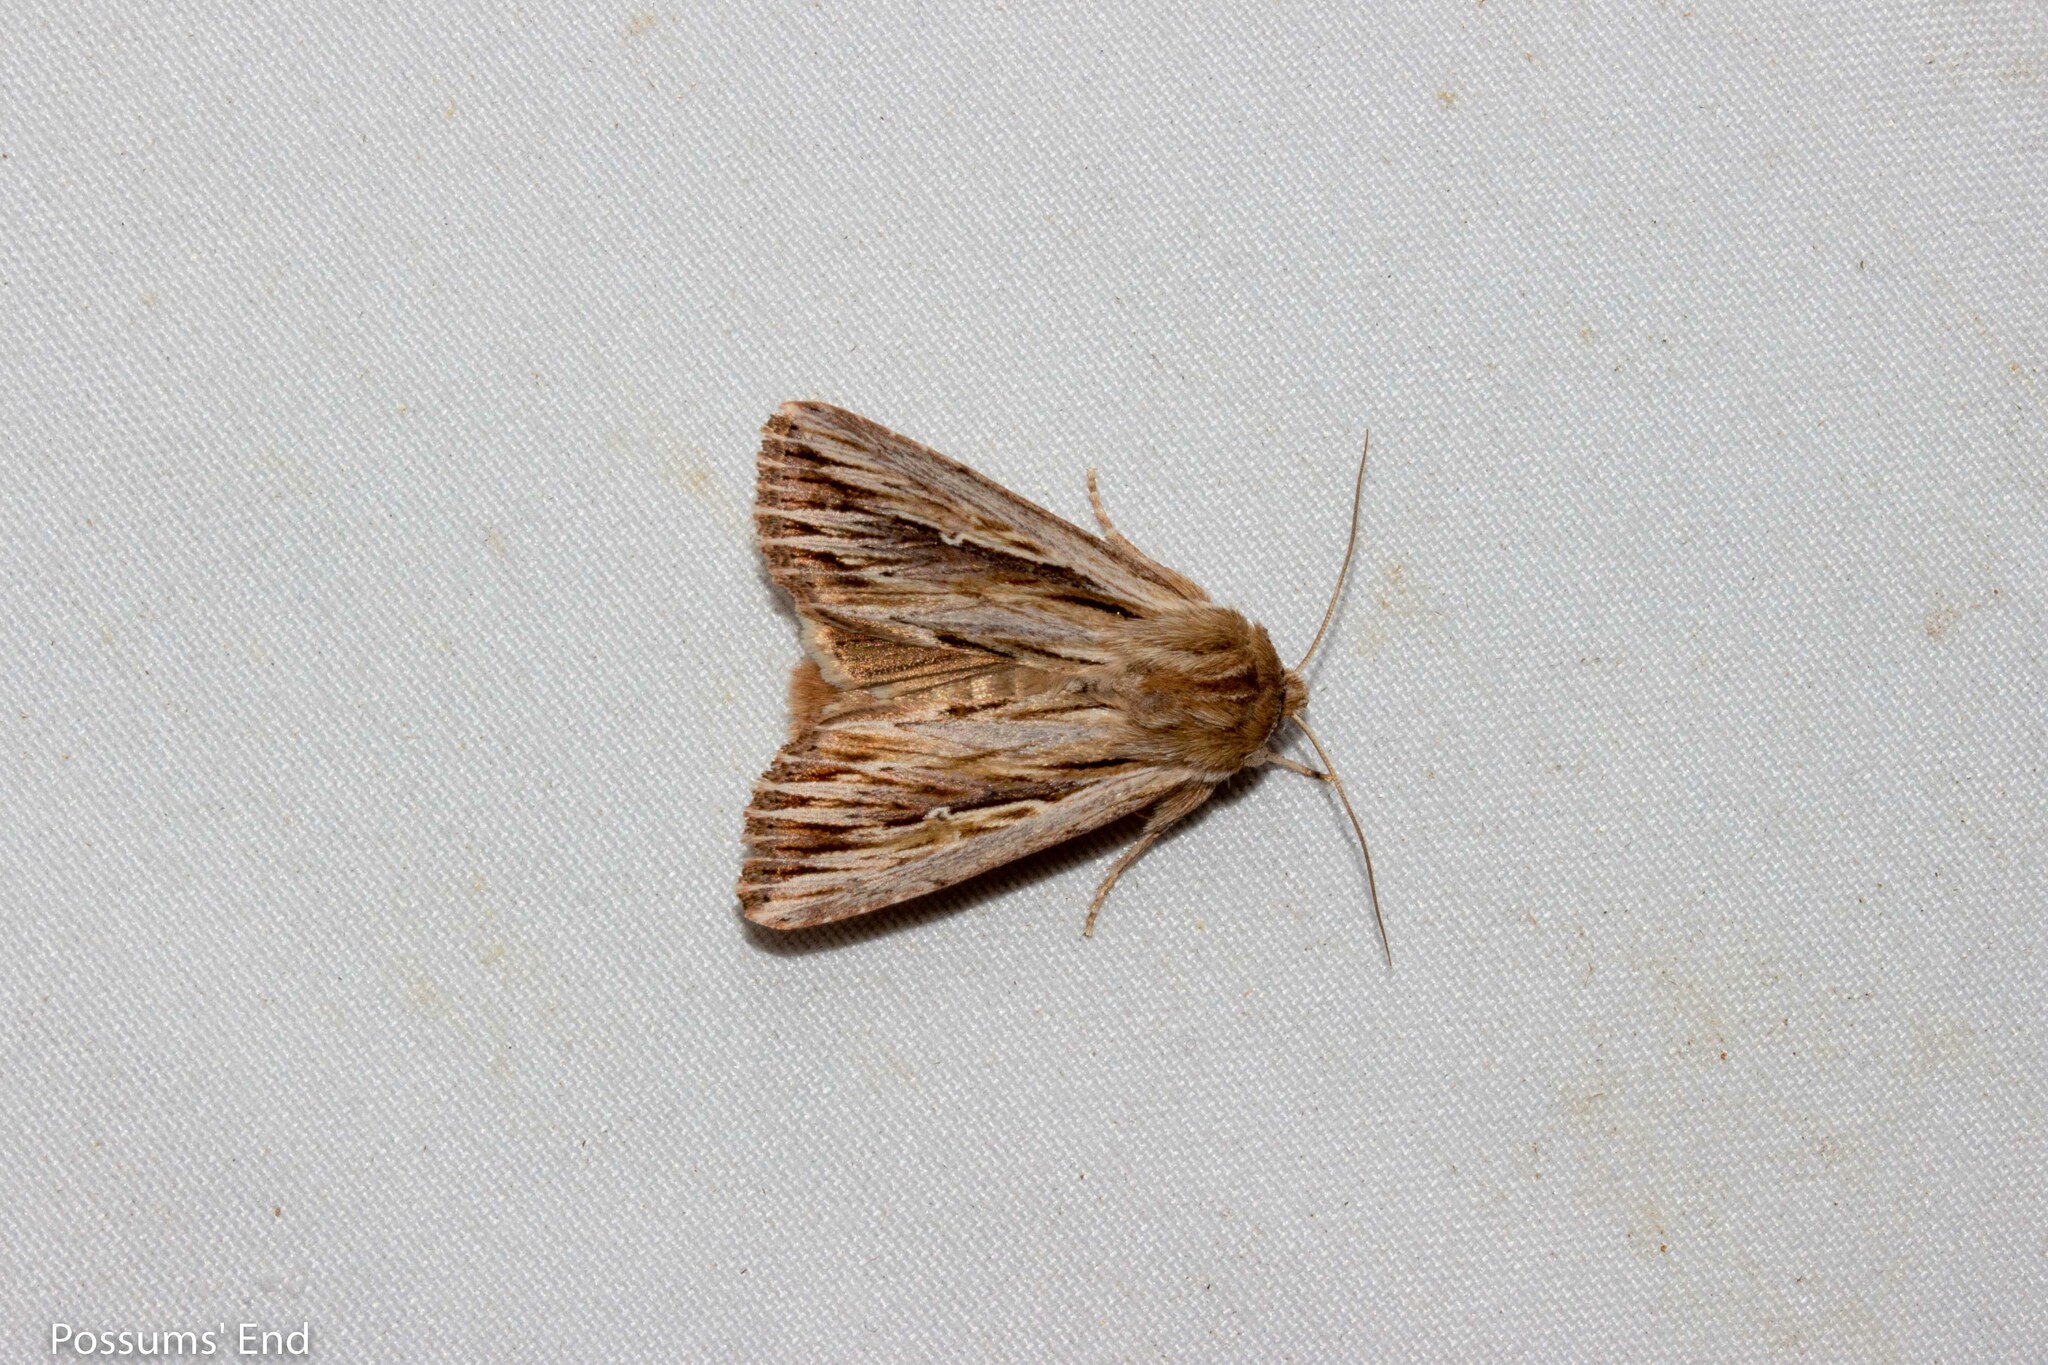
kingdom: Animalia
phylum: Arthropoda
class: Insecta
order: Lepidoptera
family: Noctuidae
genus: Persectania
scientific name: Persectania aversa
